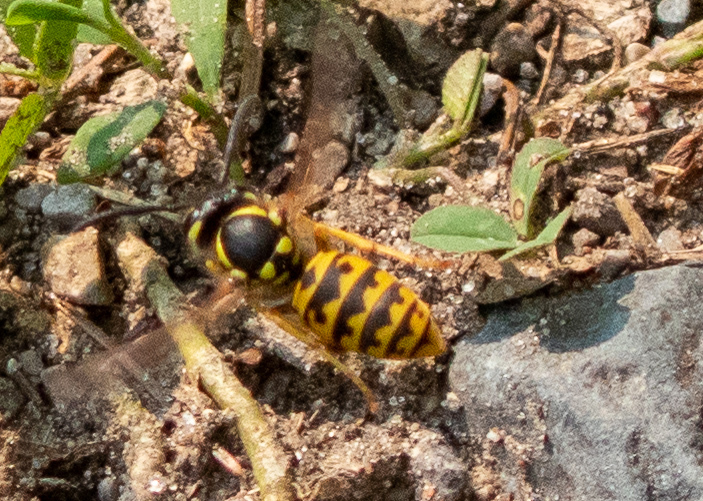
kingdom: Animalia
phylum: Arthropoda
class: Insecta
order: Hymenoptera
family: Vespidae
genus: Vespula
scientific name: Vespula germanica
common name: German wasp
